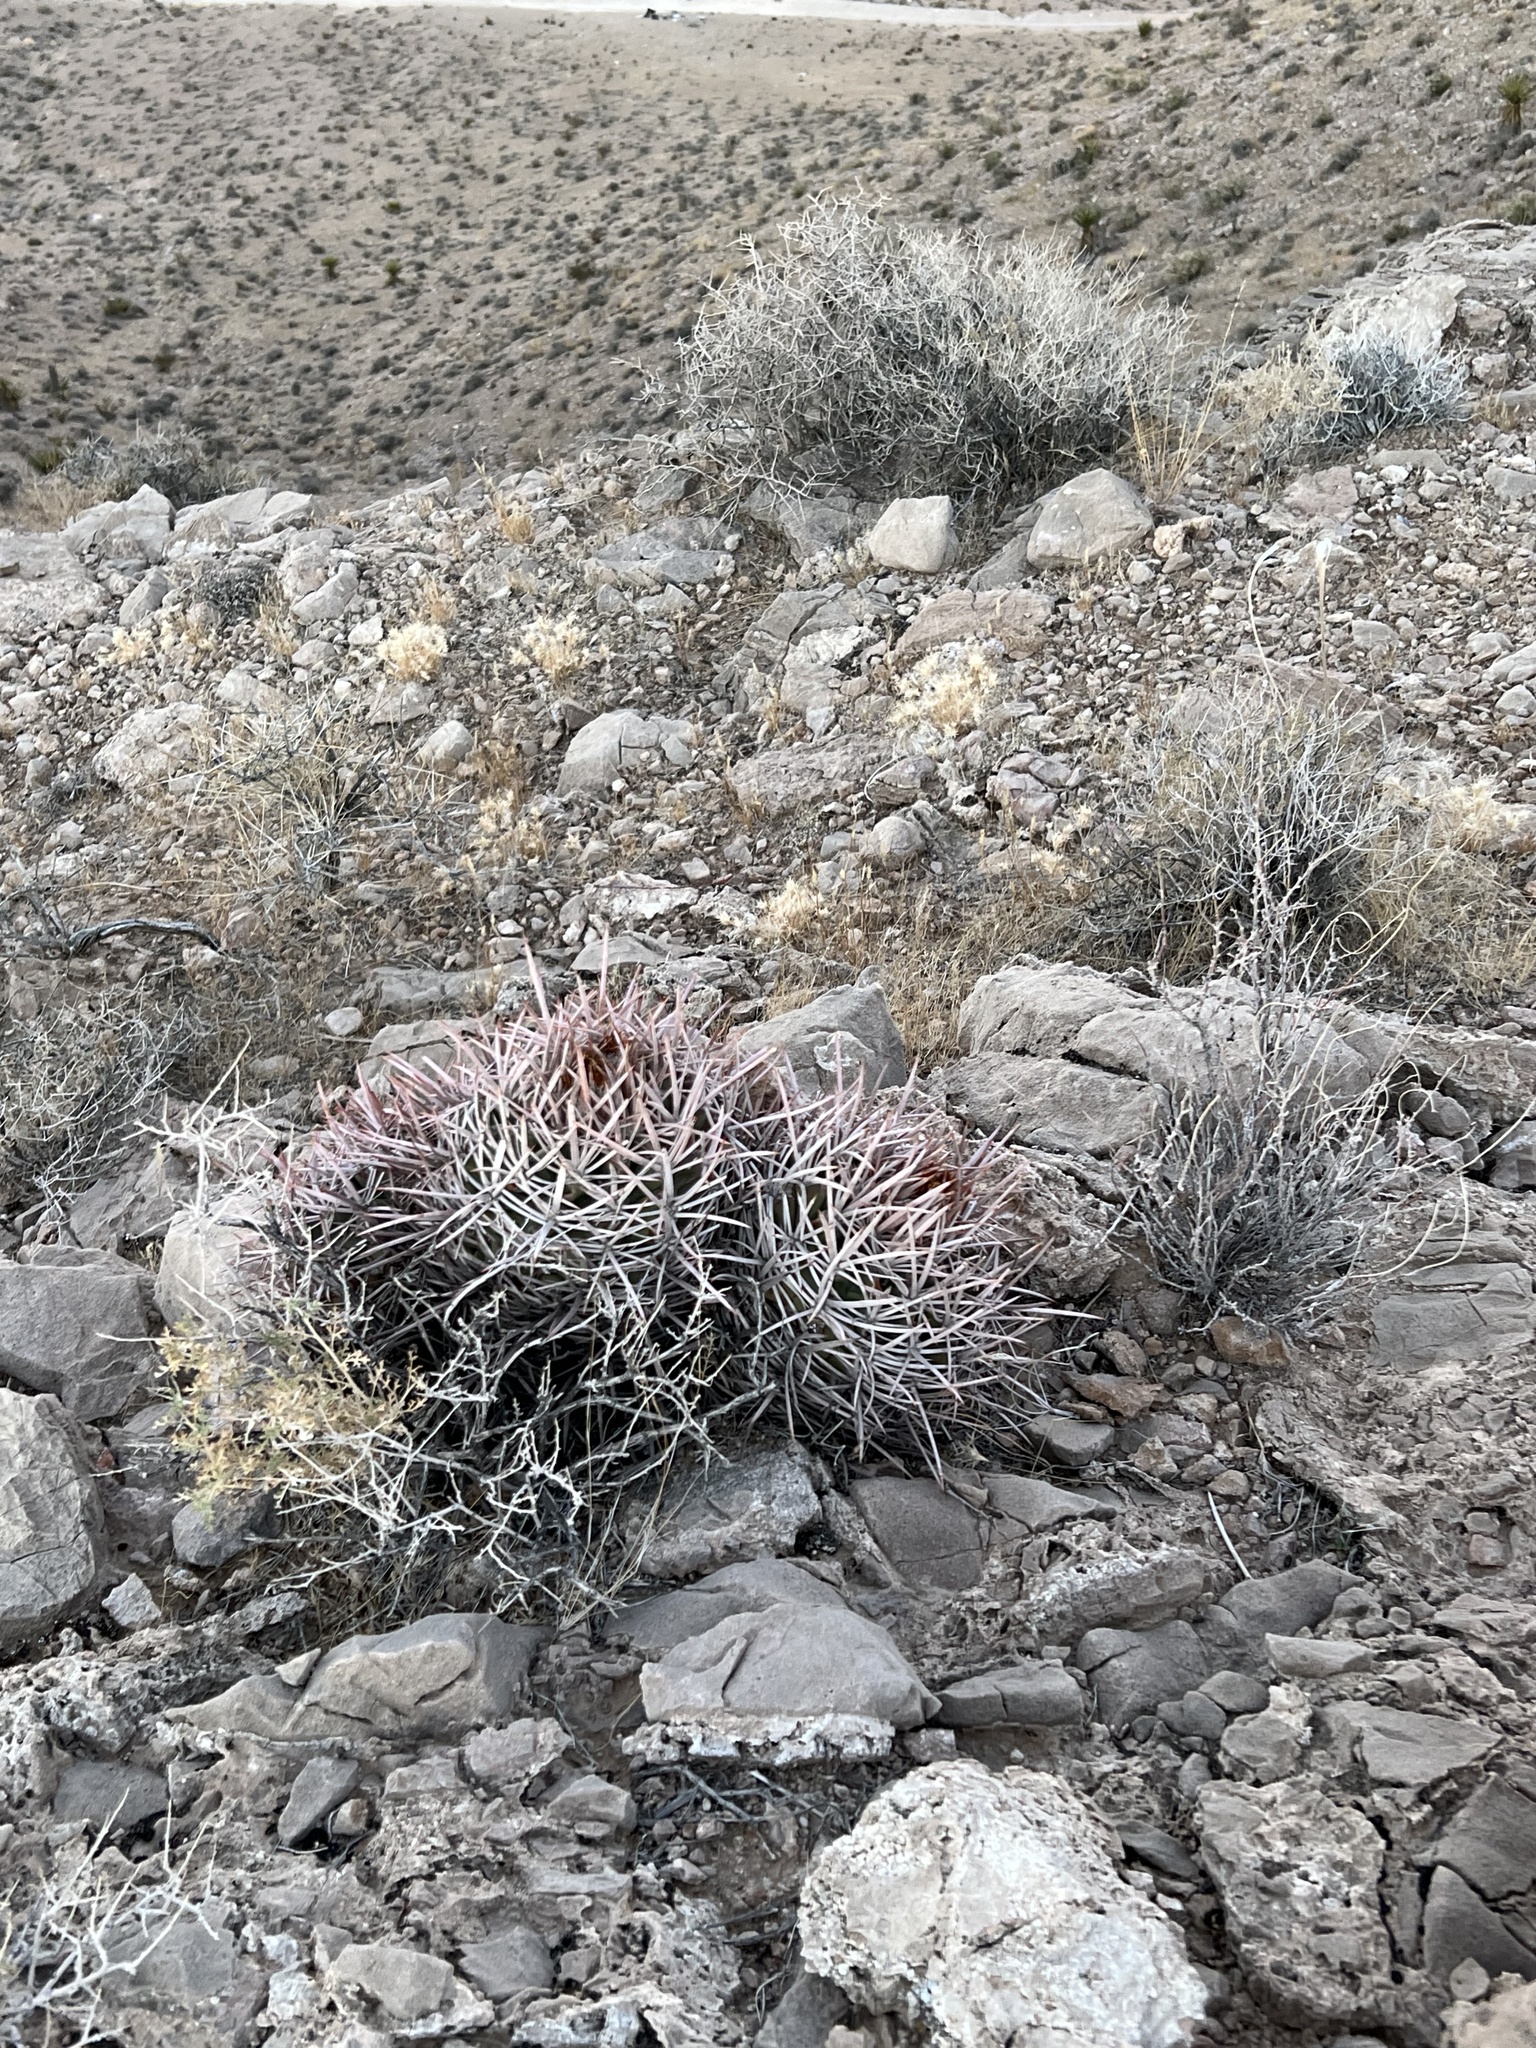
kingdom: Plantae
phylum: Tracheophyta
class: Magnoliopsida
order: Caryophyllales
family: Cactaceae
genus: Echinocactus
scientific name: Echinocactus polycephalus
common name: Cottontop cactus
